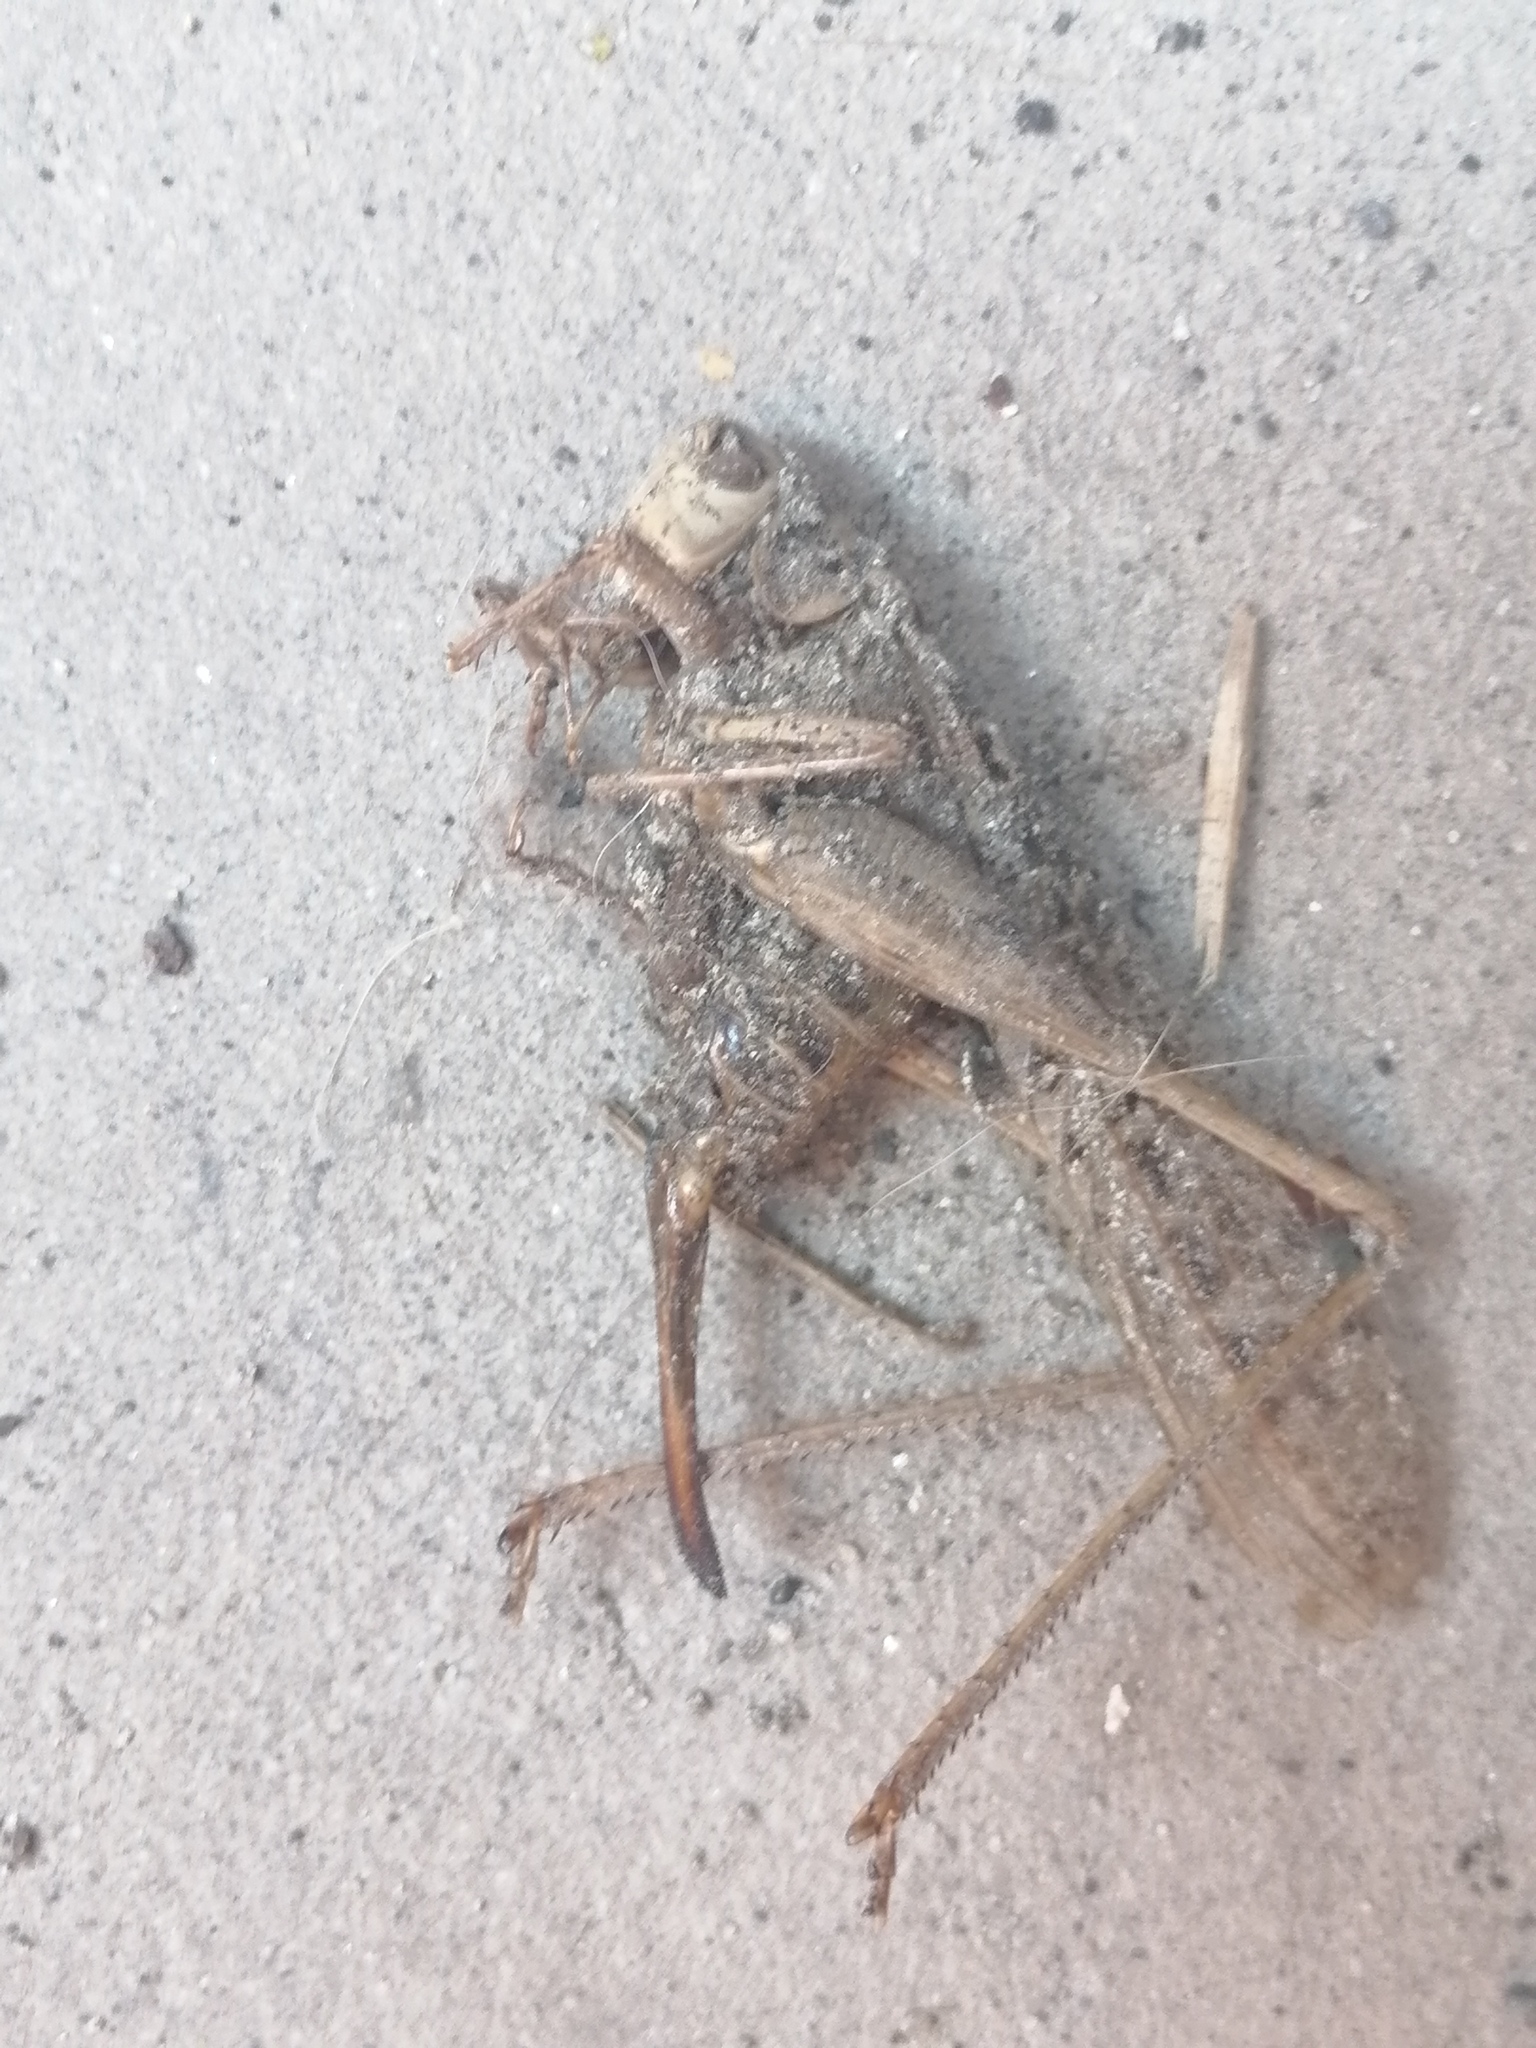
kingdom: Animalia
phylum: Arthropoda
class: Insecta
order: Orthoptera
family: Tettigoniidae
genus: Decticus
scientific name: Decticus albifrons
